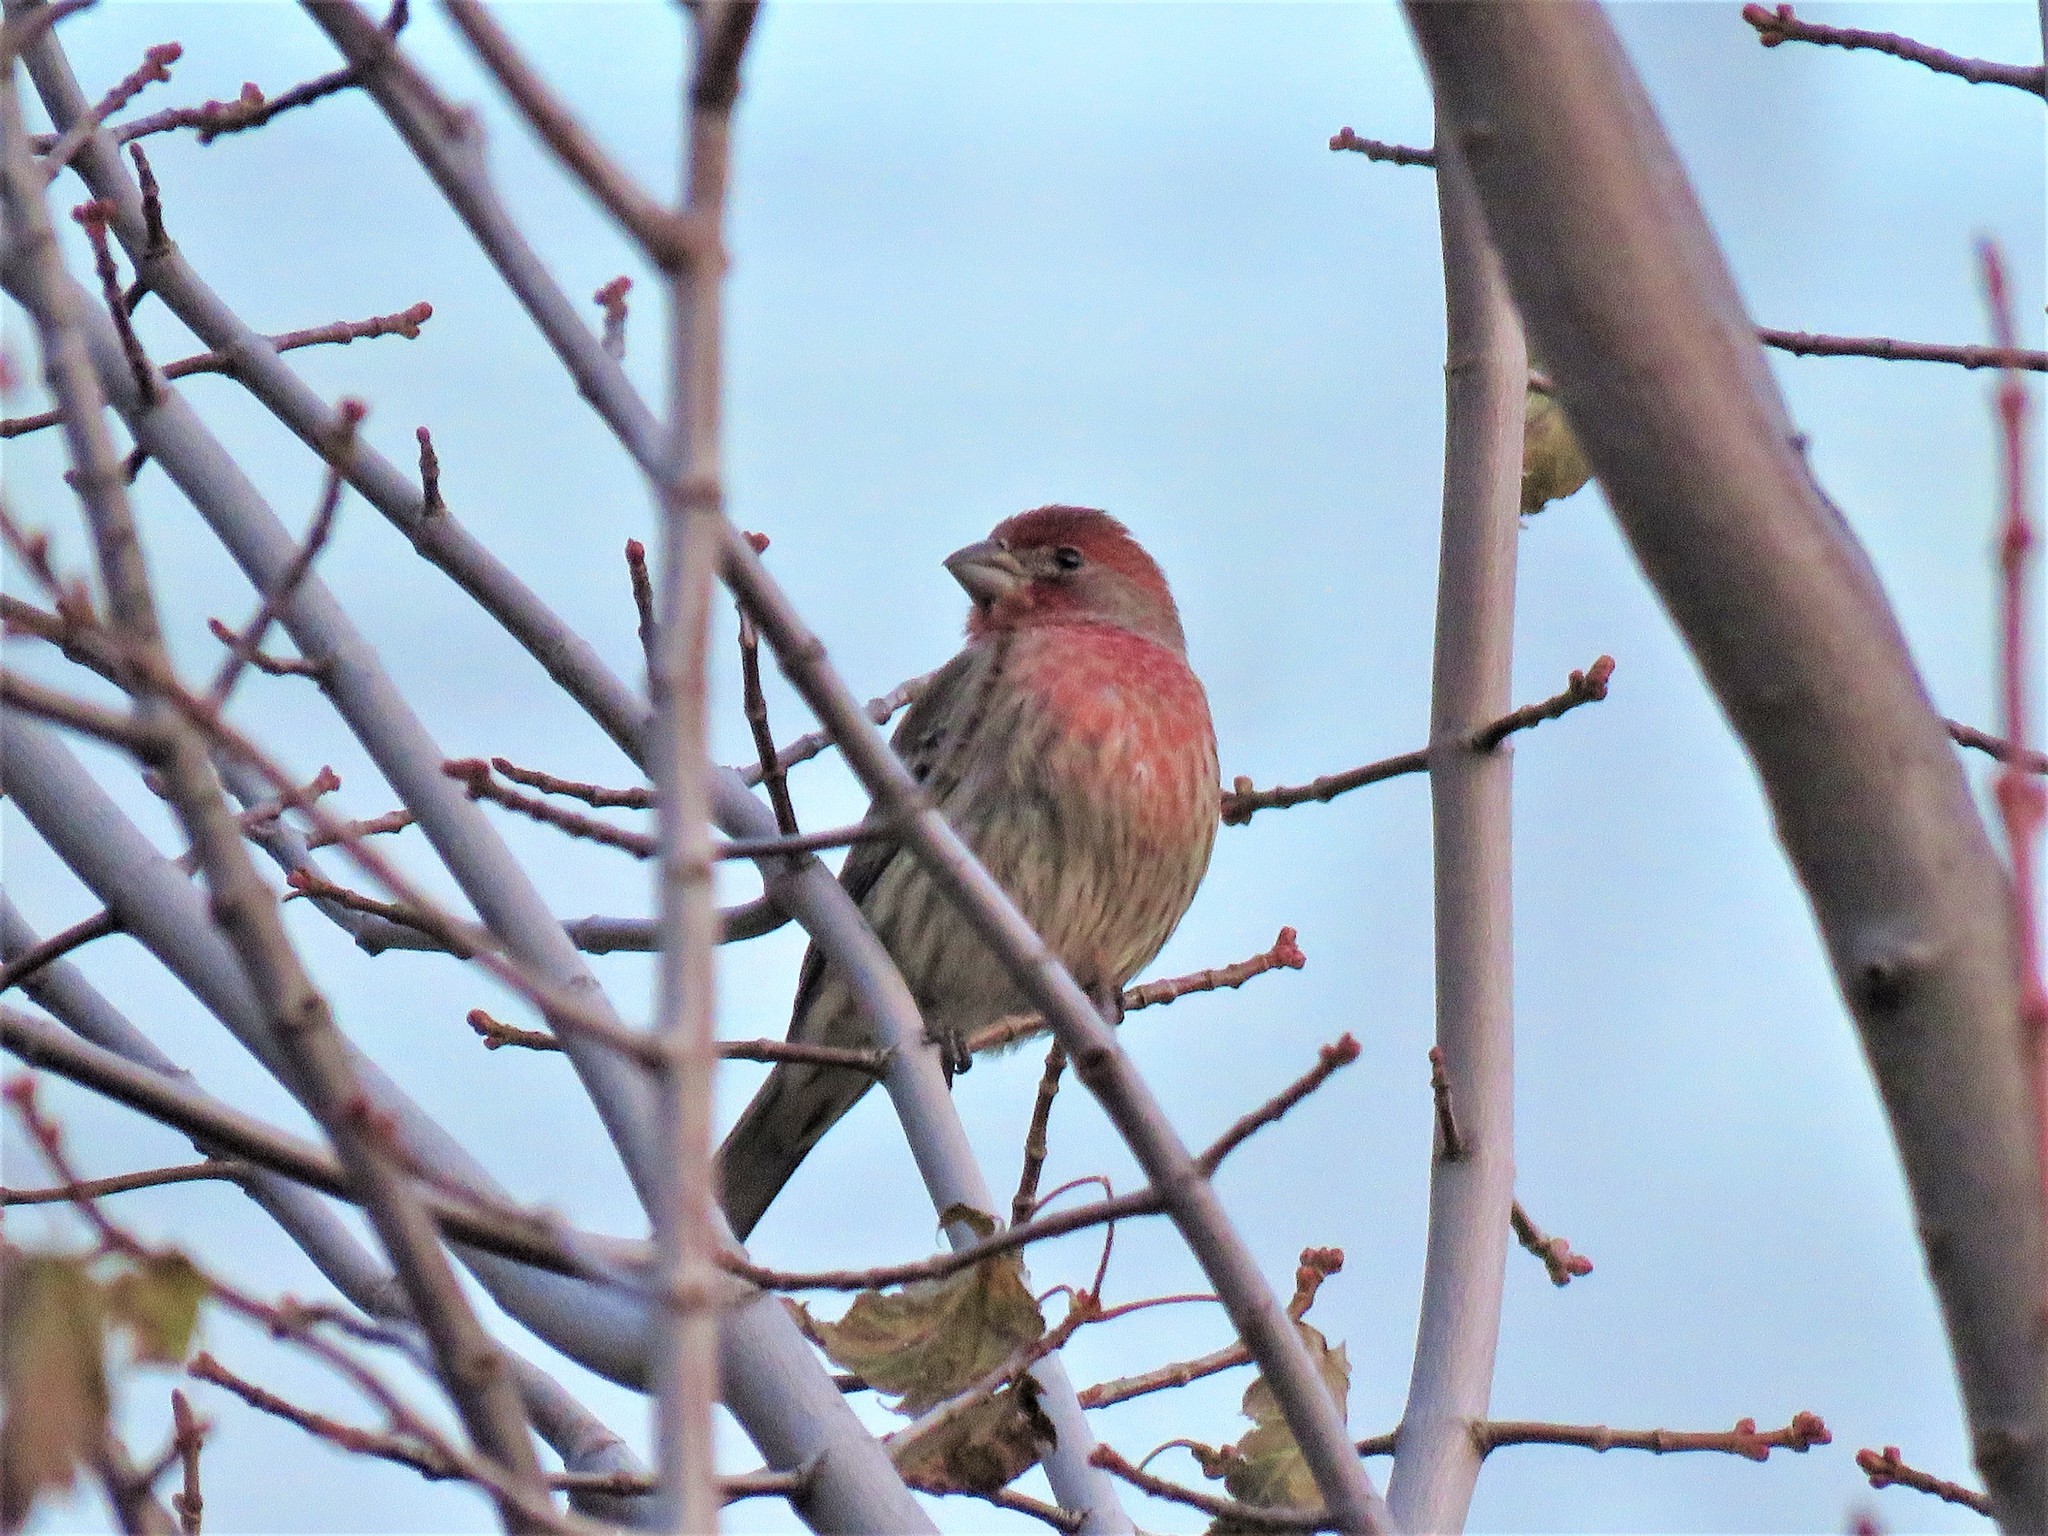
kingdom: Animalia
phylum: Chordata
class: Aves
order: Passeriformes
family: Fringillidae
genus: Haemorhous
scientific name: Haemorhous mexicanus
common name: House finch
